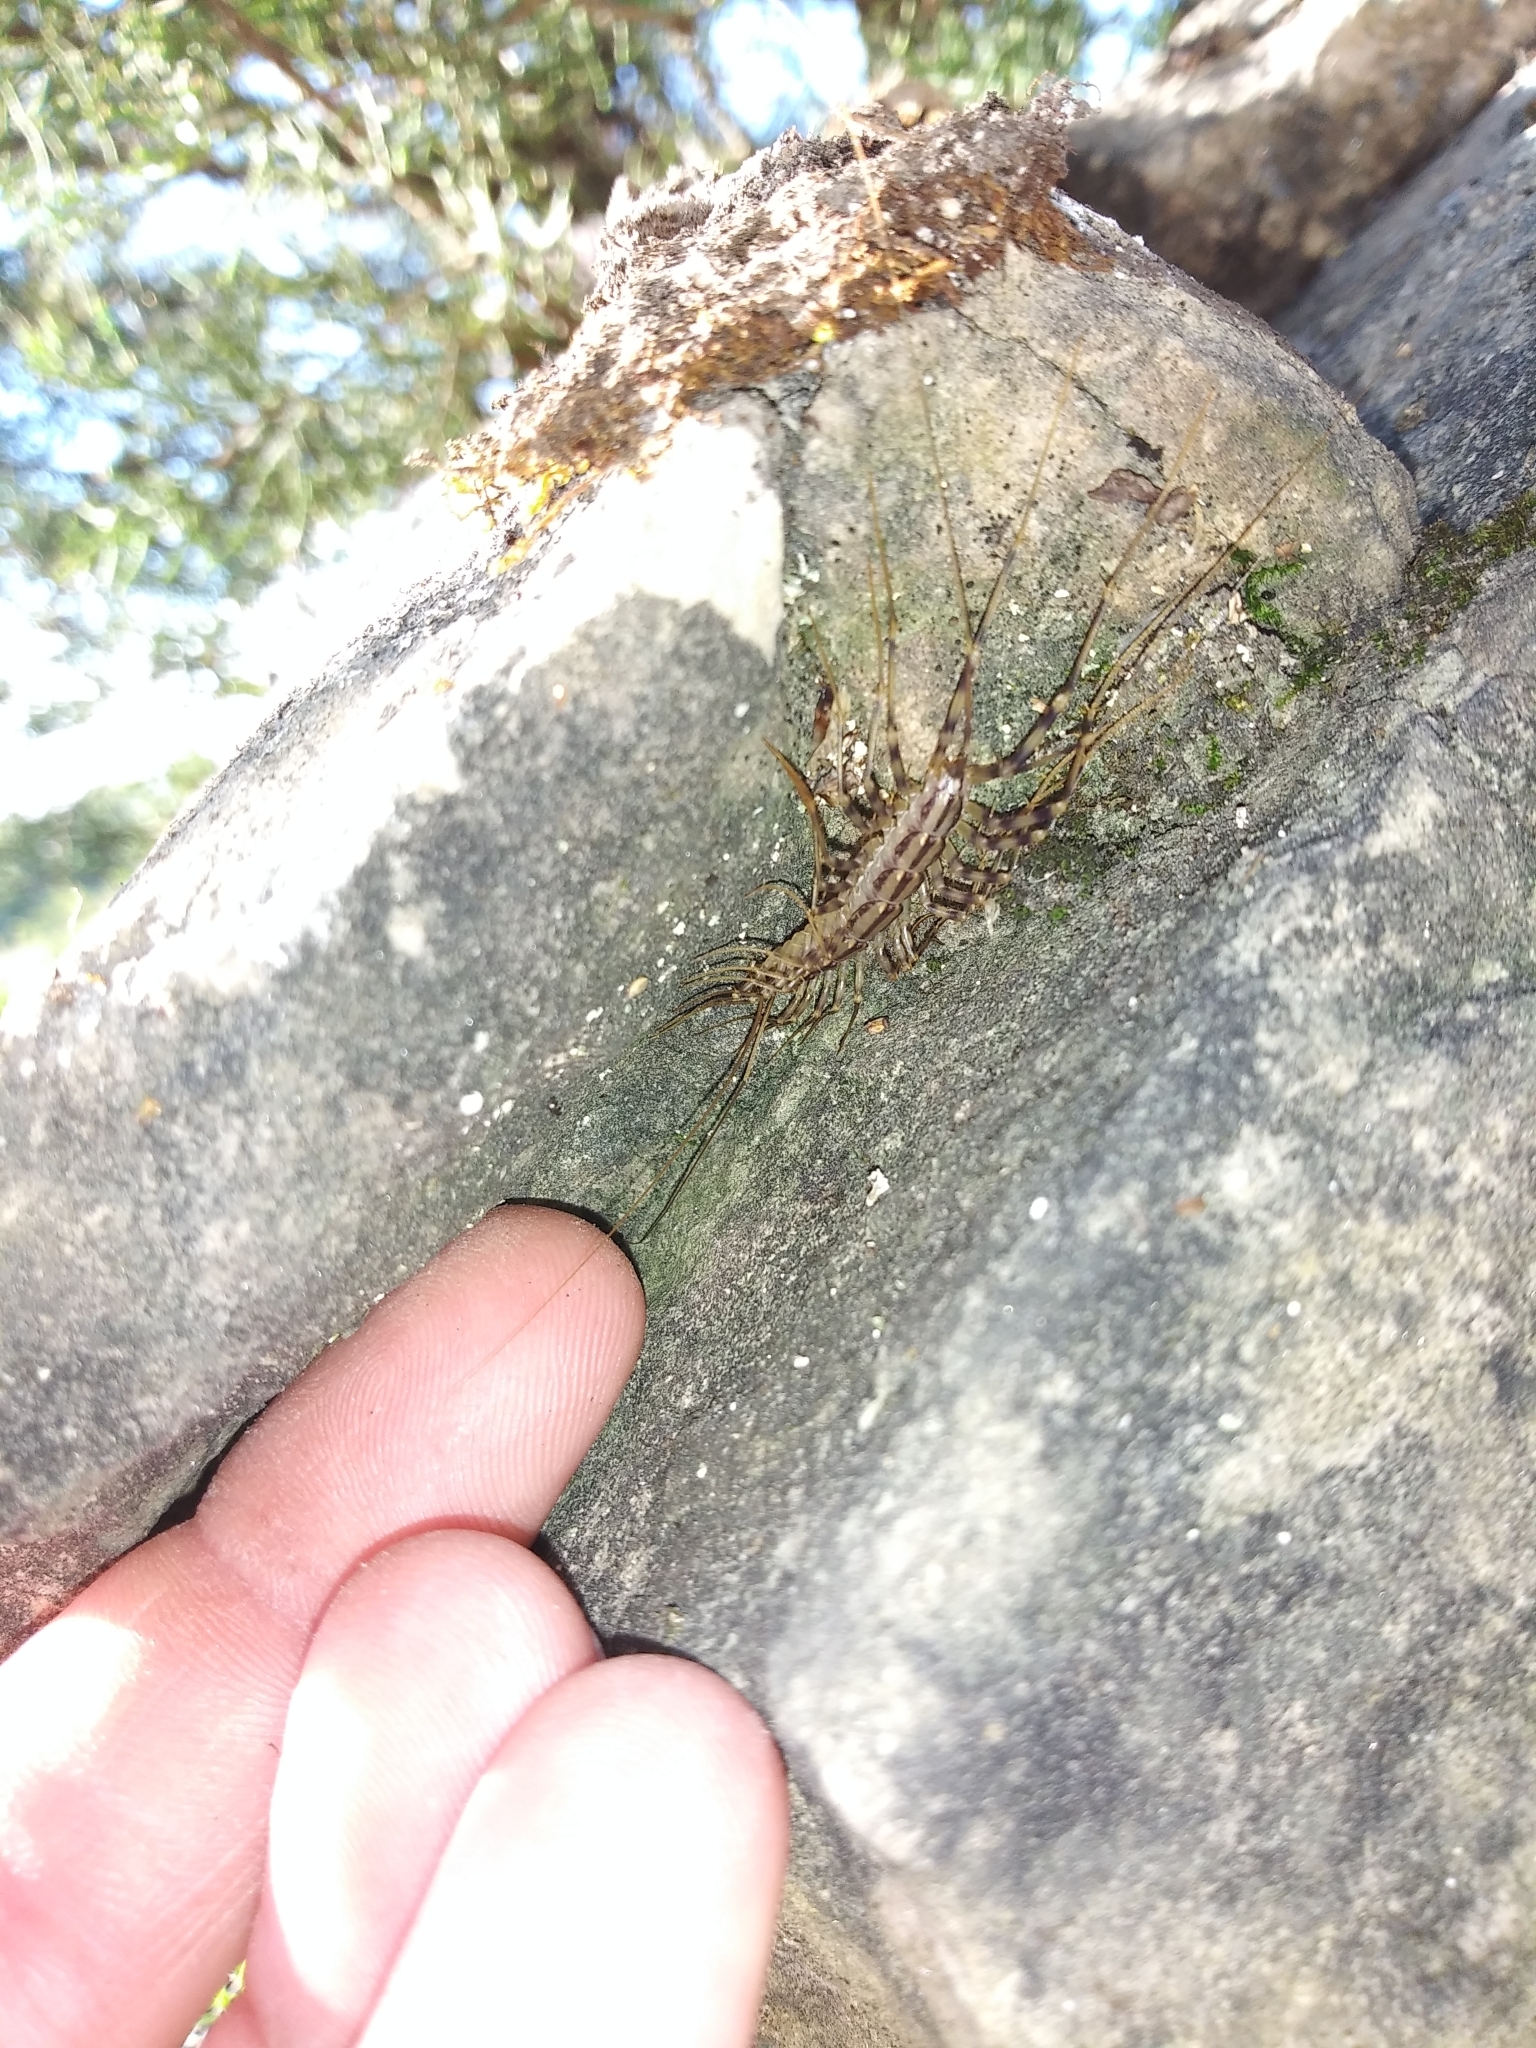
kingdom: Animalia
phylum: Arthropoda
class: Chilopoda
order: Scutigeromorpha
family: Scutigeridae
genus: Scutigera
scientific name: Scutigera coleoptrata
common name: House centipede
